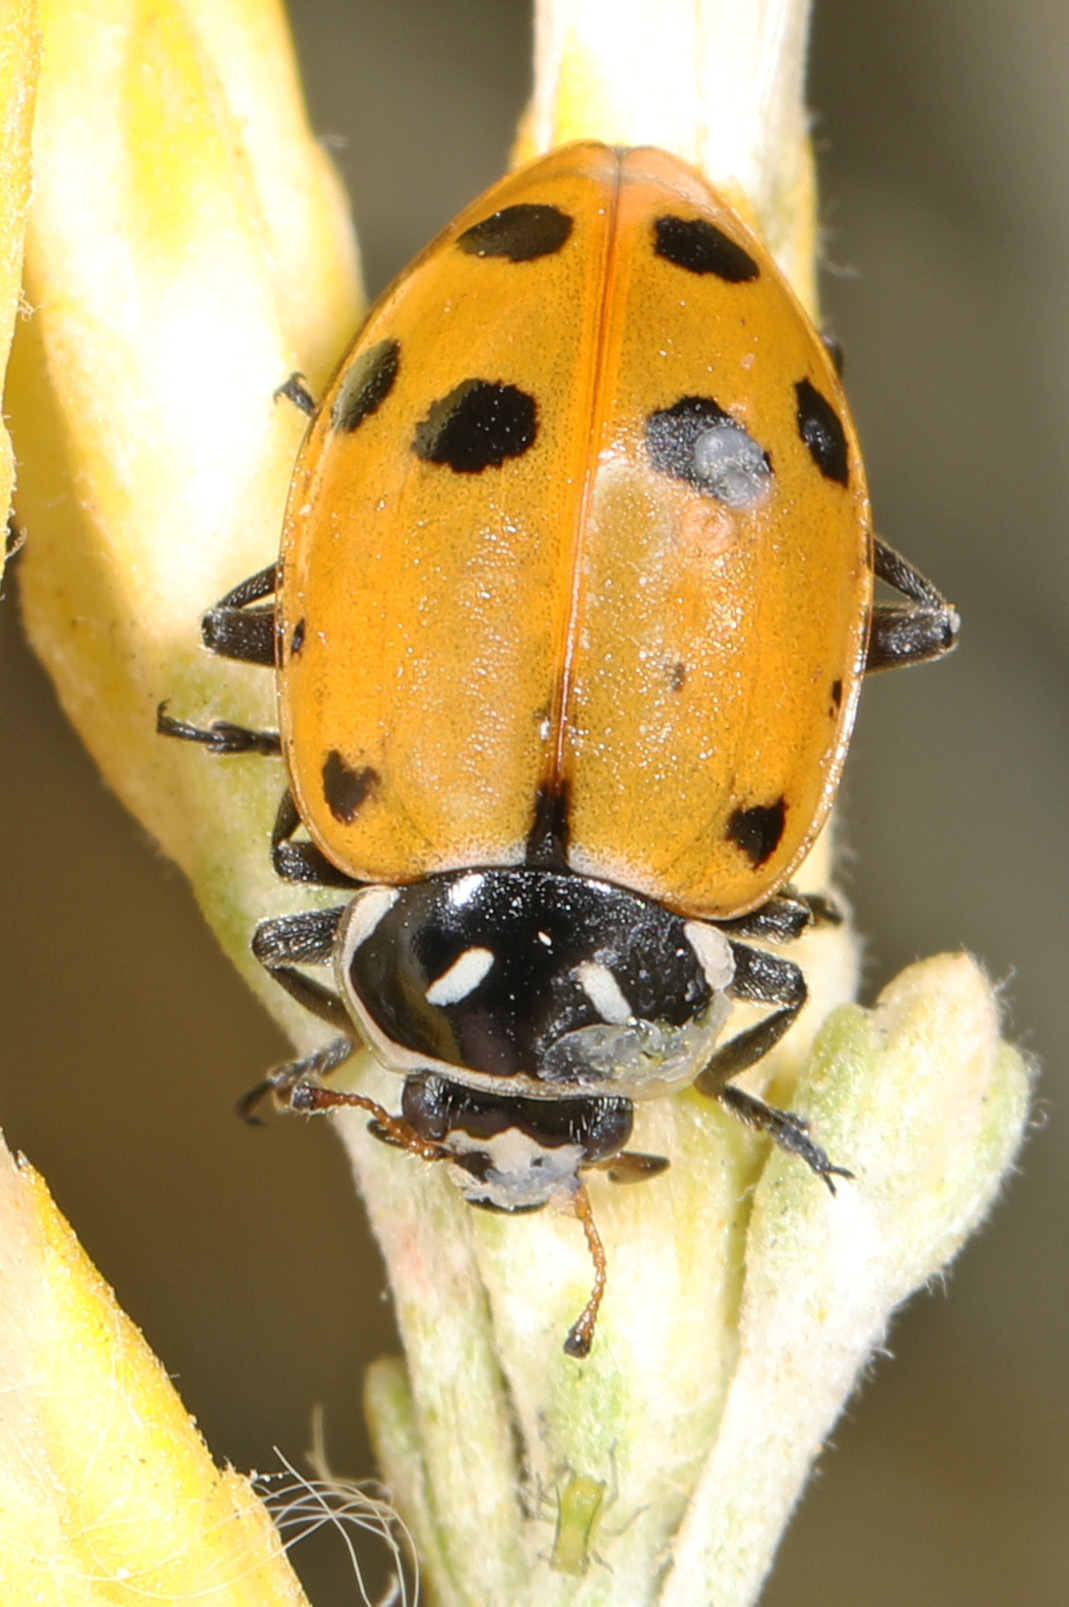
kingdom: Animalia
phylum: Arthropoda
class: Insecta
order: Coleoptera
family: Coccinellidae
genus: Hippodamia
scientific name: Hippodamia convergens
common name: Convergent lady beetle
